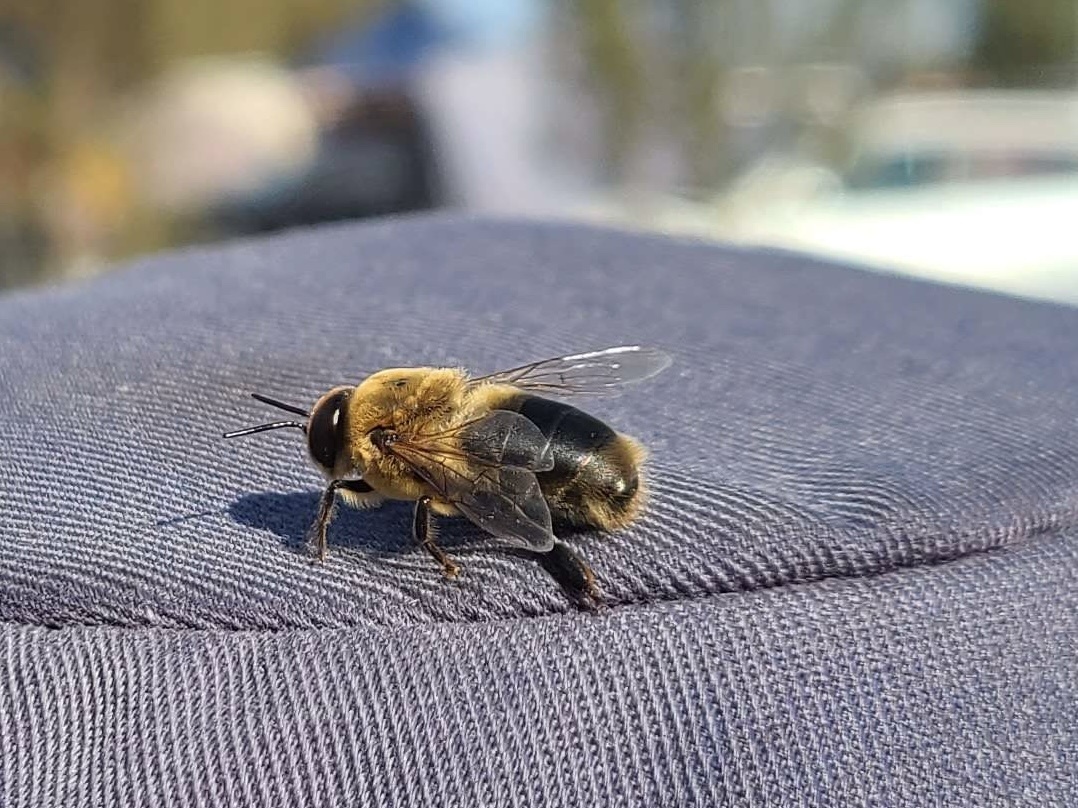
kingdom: Animalia
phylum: Arthropoda
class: Insecta
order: Hymenoptera
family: Apidae
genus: Apis
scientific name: Apis mellifera
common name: Honey bee
